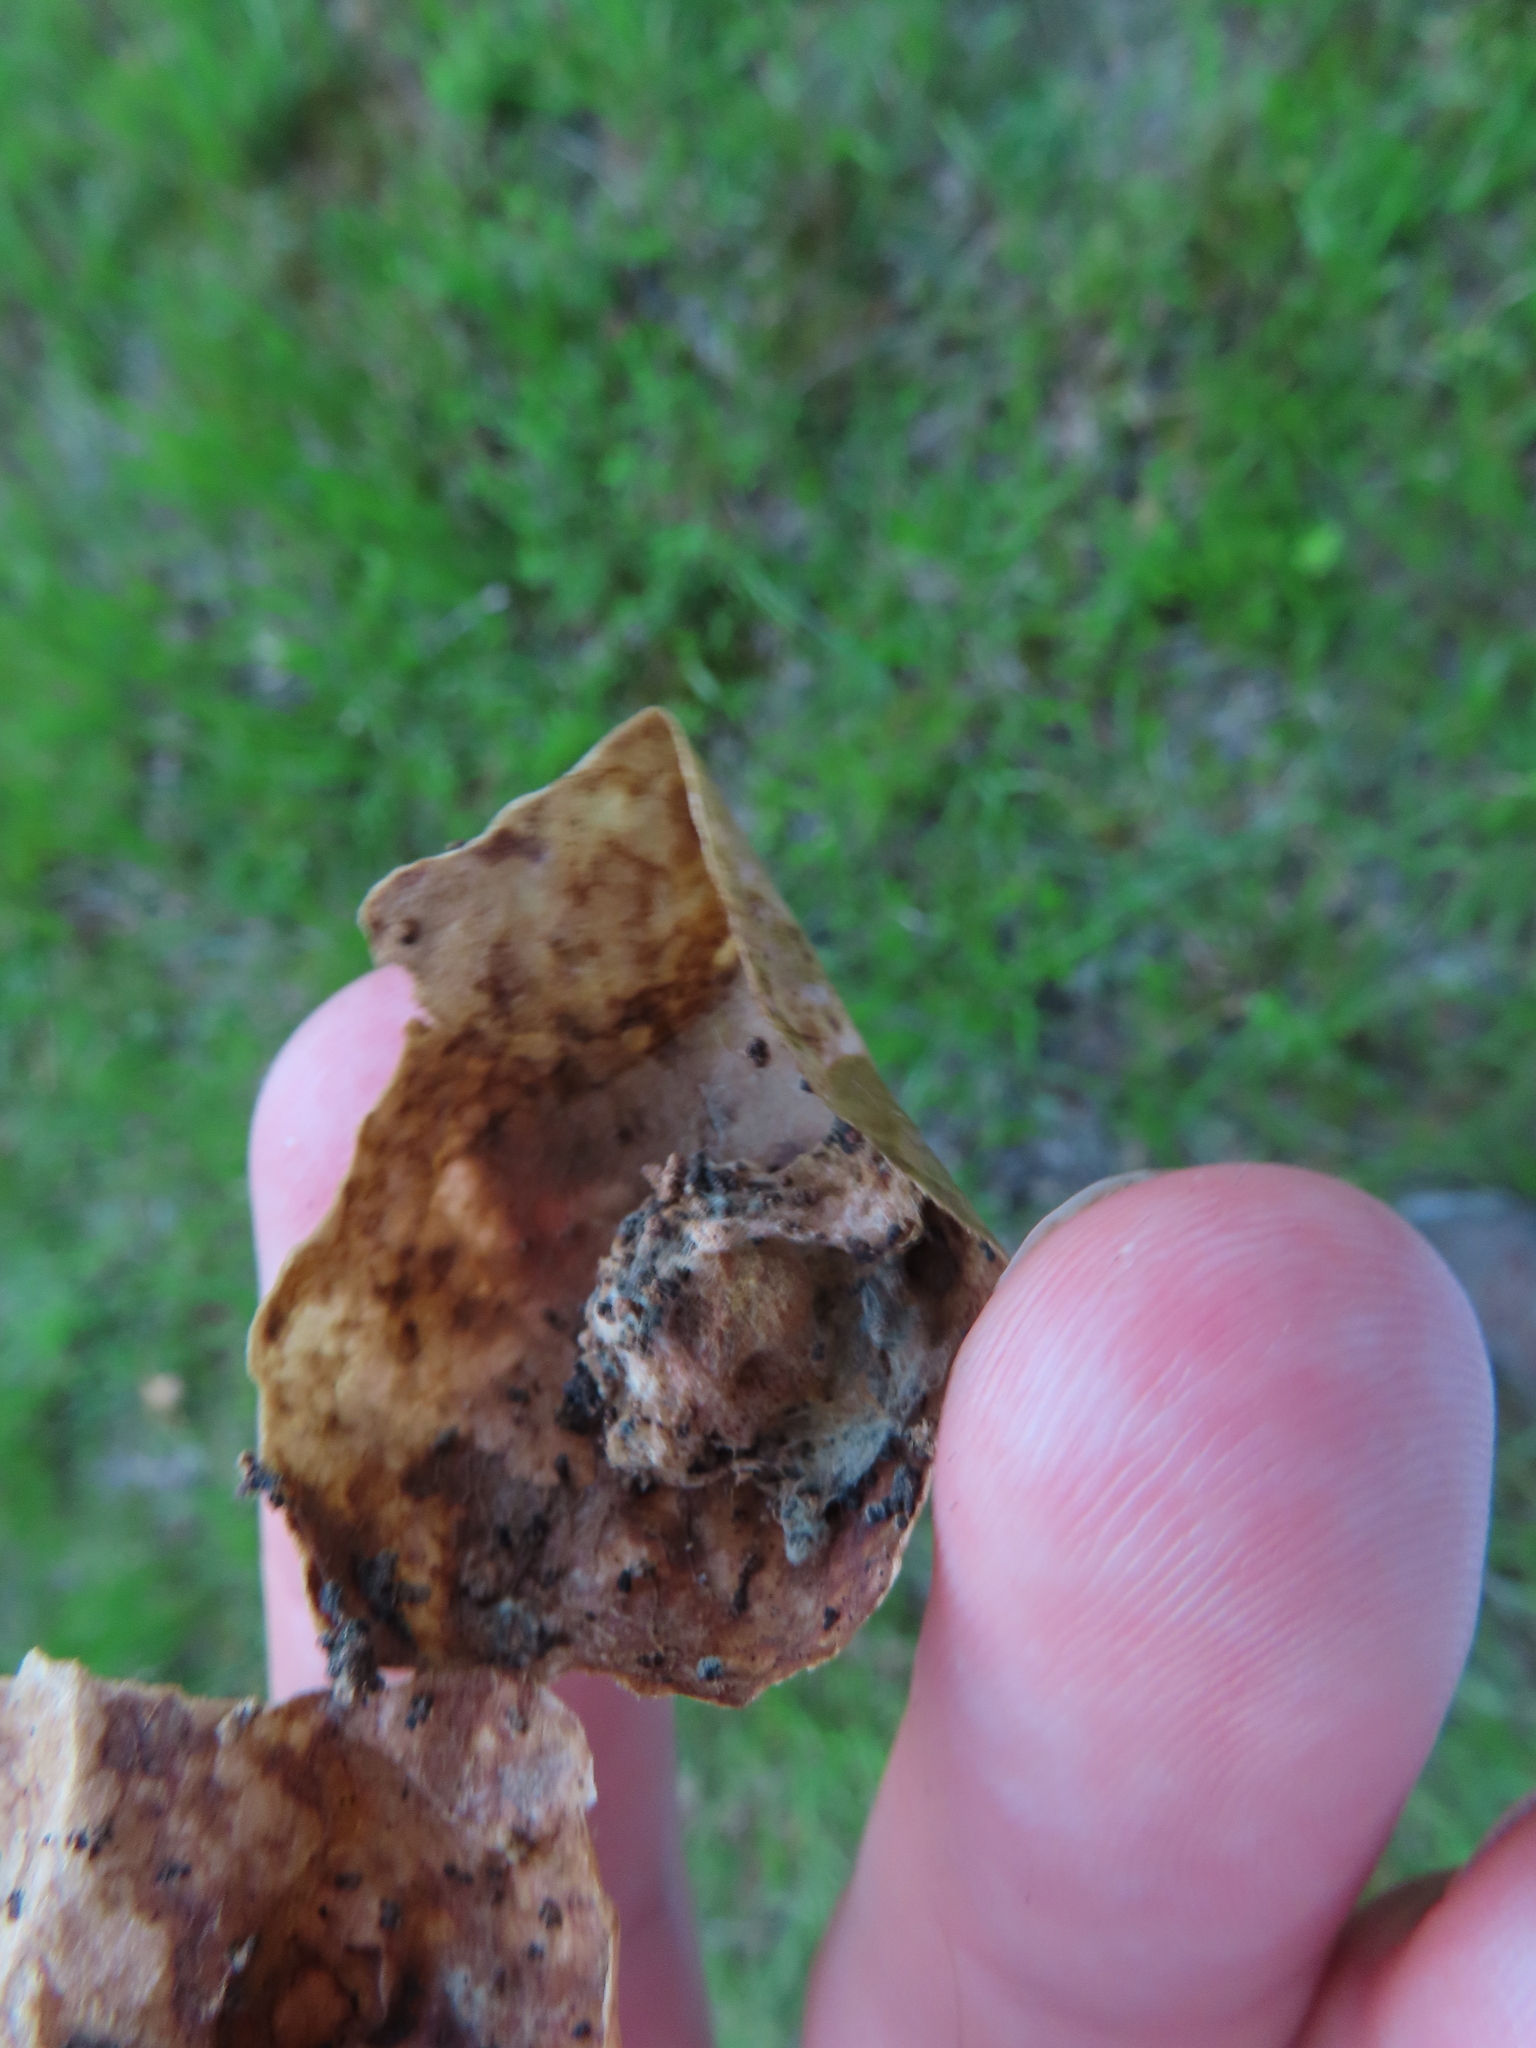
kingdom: Animalia
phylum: Arthropoda
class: Insecta
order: Hymenoptera
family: Cynipidae
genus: Amphibolips
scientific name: Amphibolips
